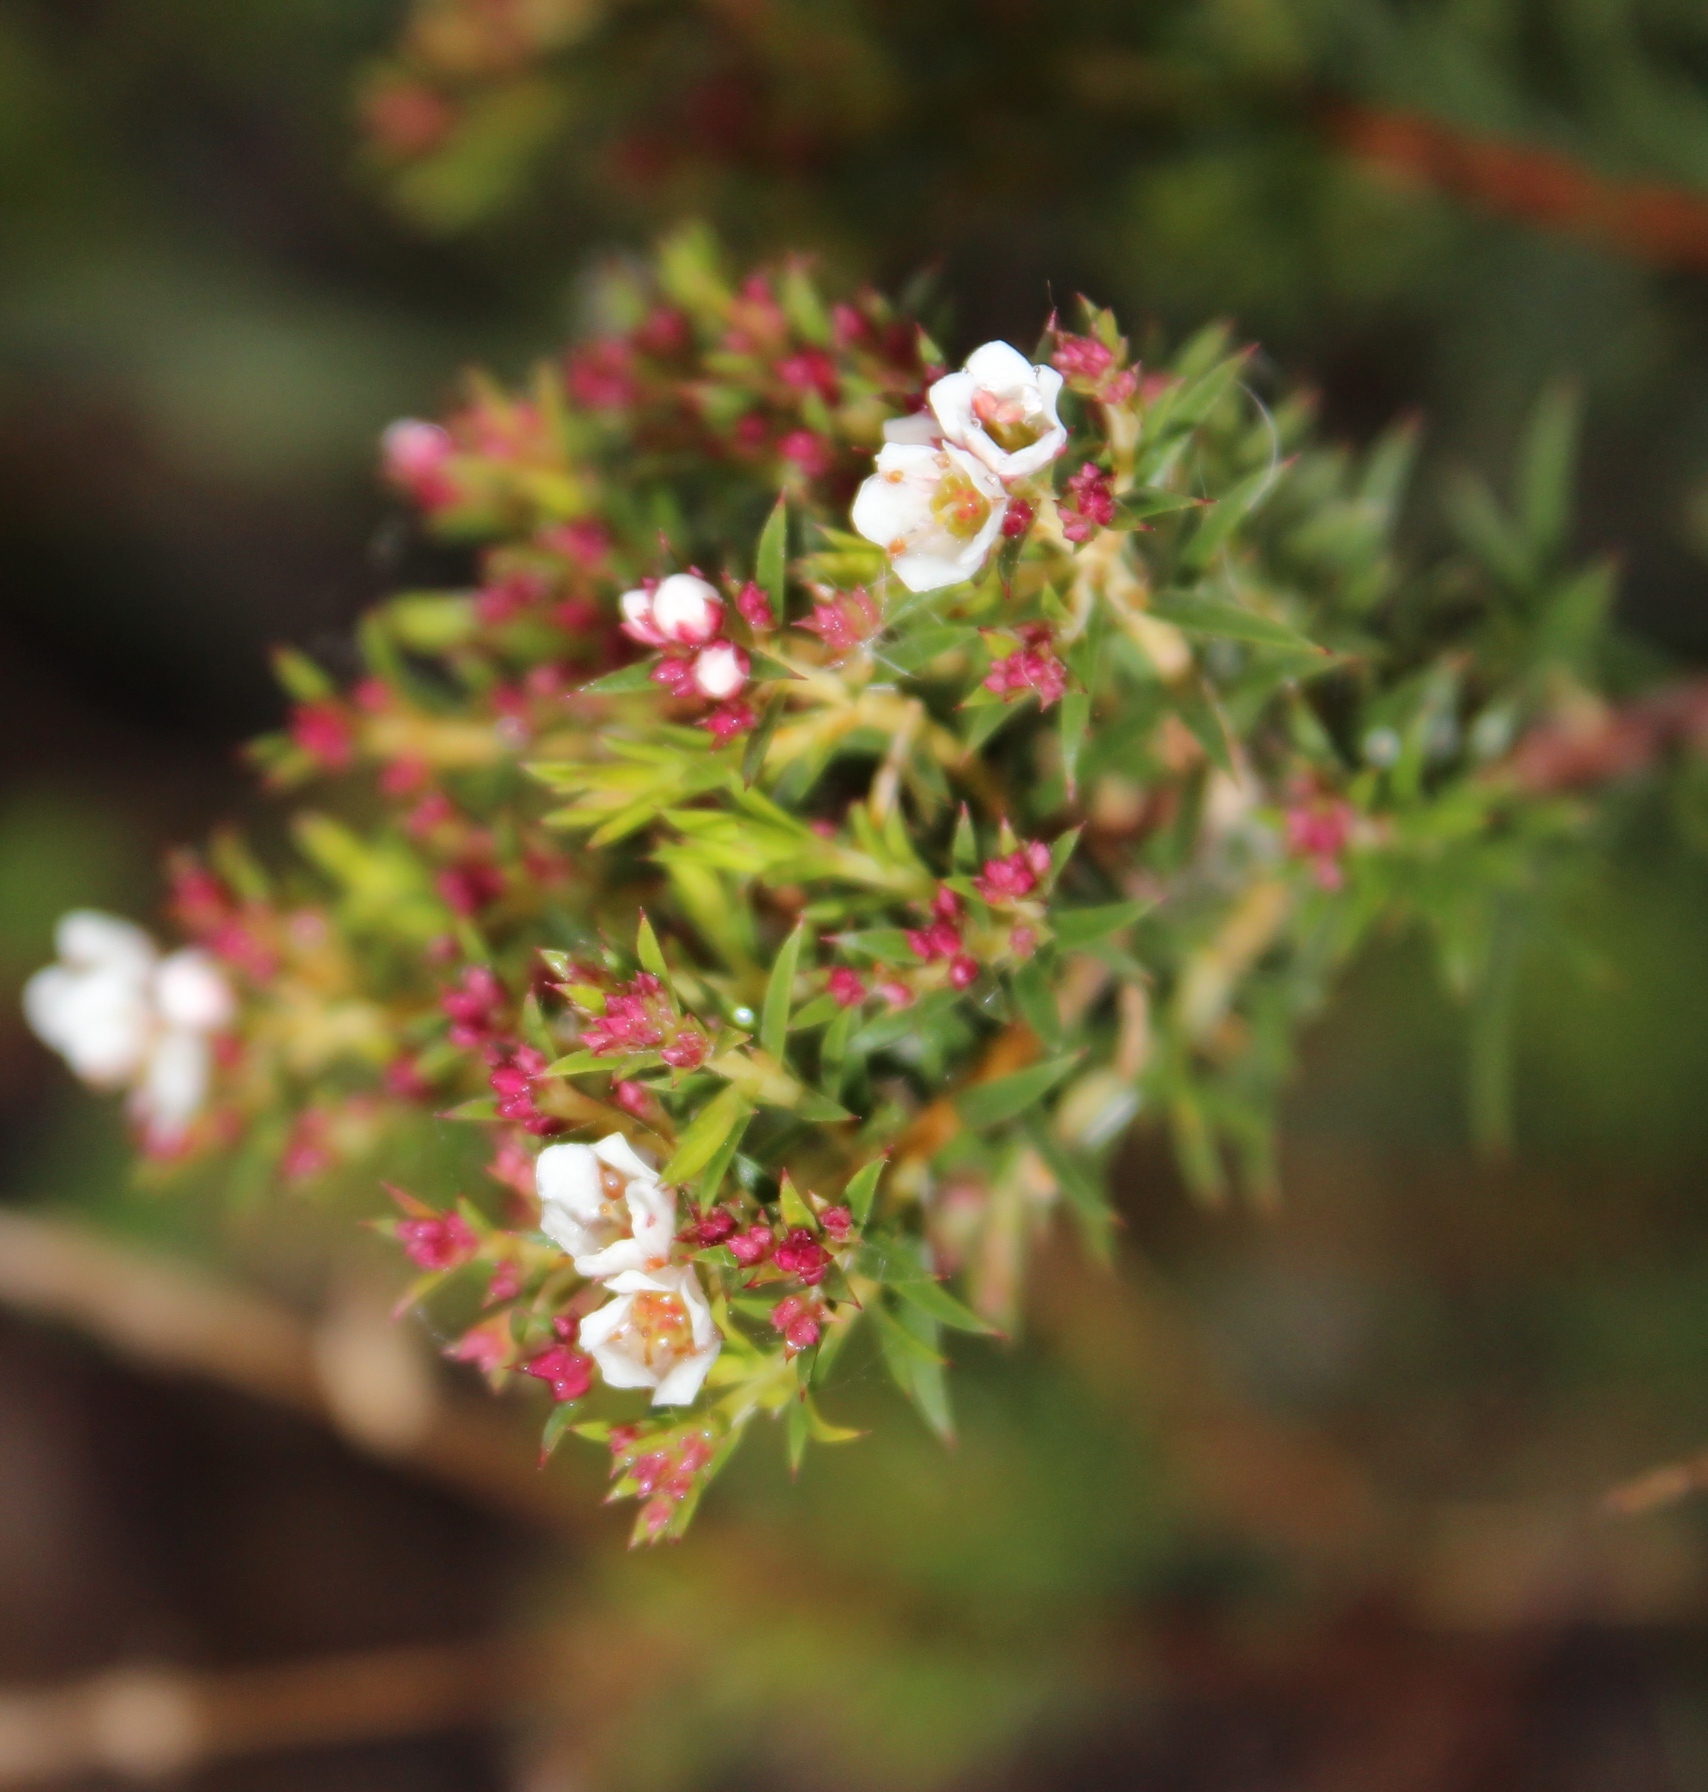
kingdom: Plantae
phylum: Tracheophyta
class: Magnoliopsida
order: Sapindales
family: Rutaceae
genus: Diosma
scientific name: Diosma hirsuta
